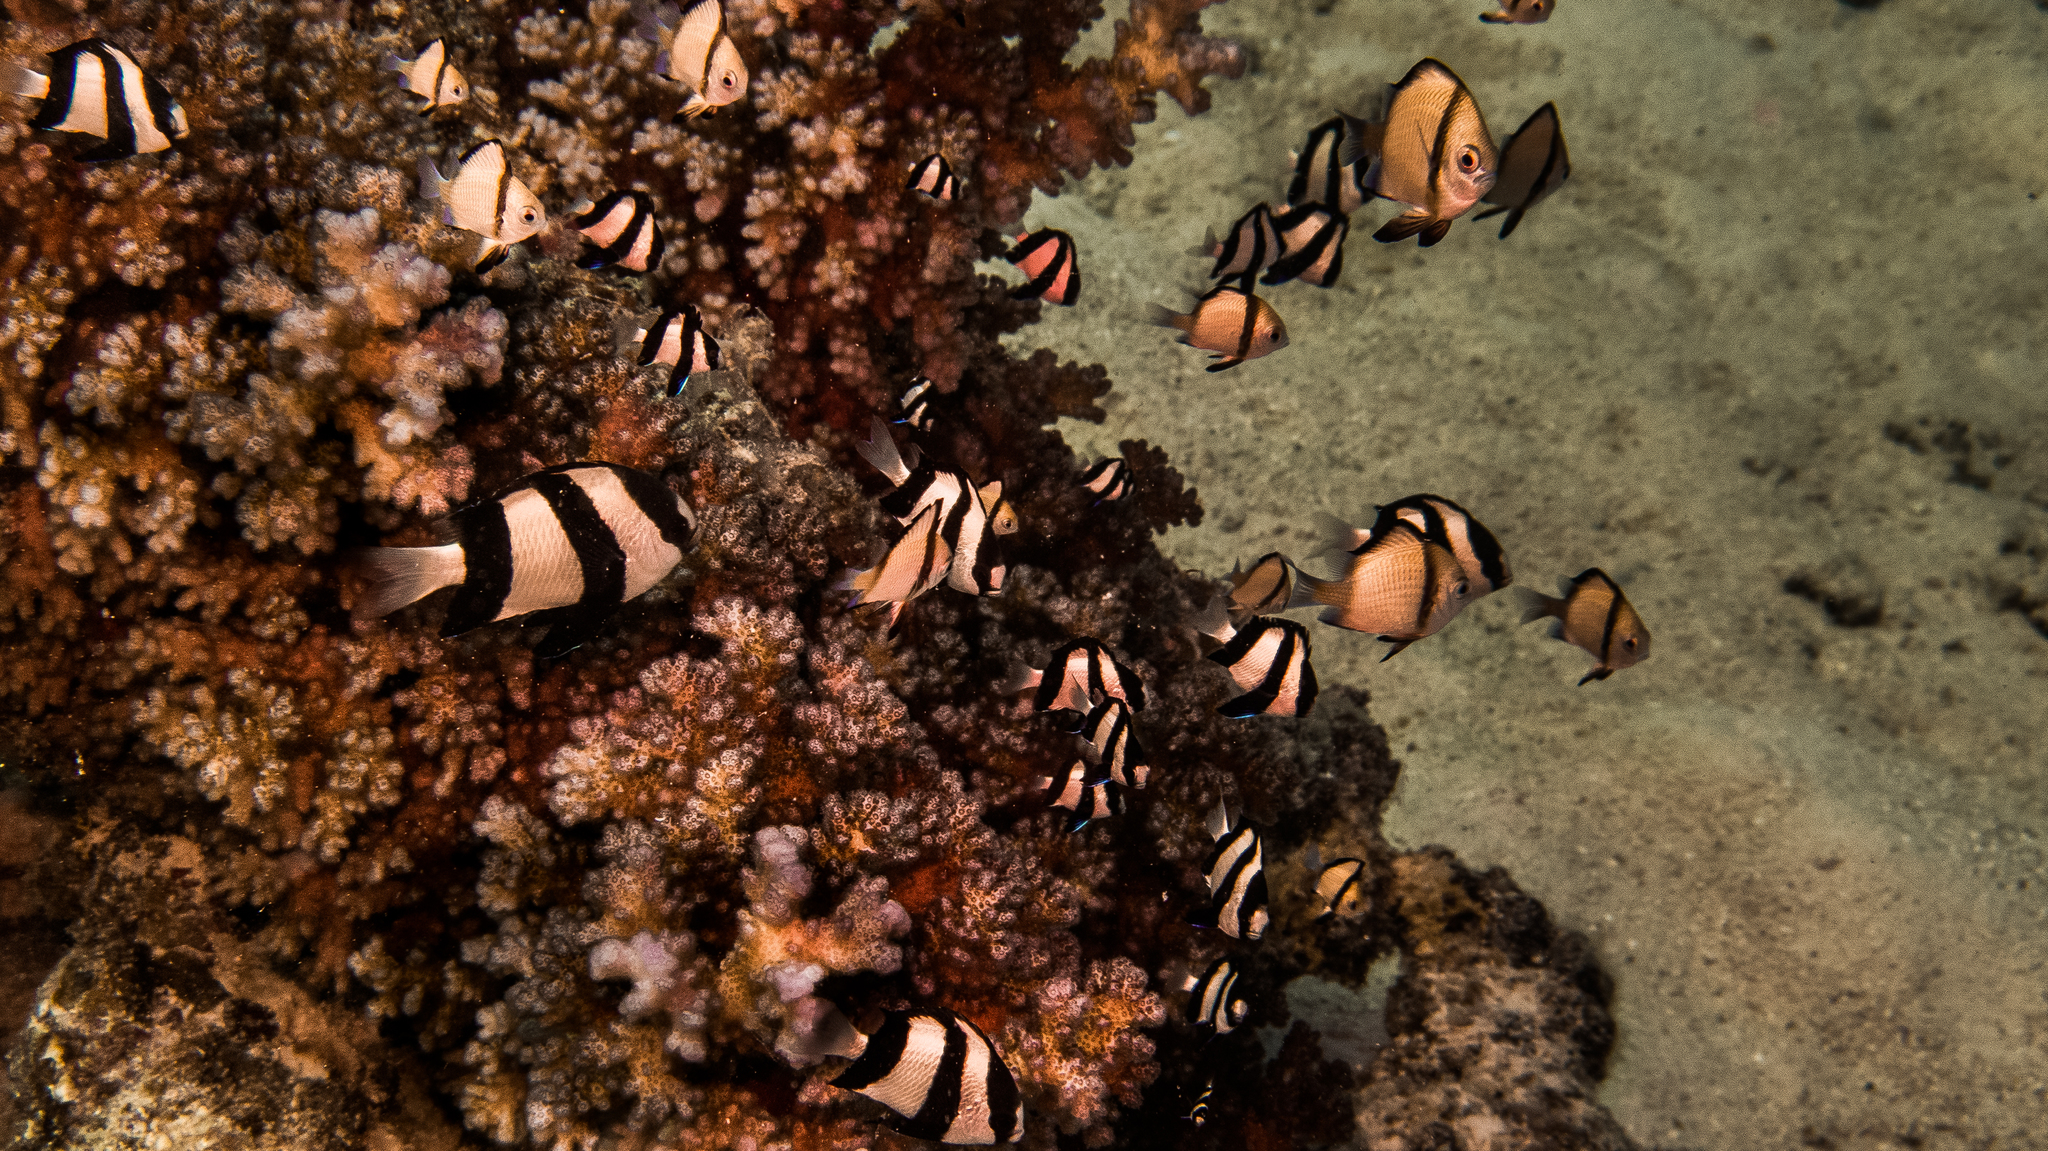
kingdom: Animalia
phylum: Chordata
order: Perciformes
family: Pomacentridae
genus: Dascyllus
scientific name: Dascyllus aruanus
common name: Humbug dascyllus
